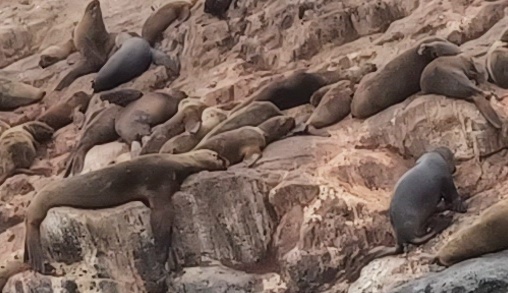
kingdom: Animalia
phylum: Chordata
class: Mammalia
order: Carnivora
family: Otariidae
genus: Otaria
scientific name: Otaria byronia
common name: South american sea lion
